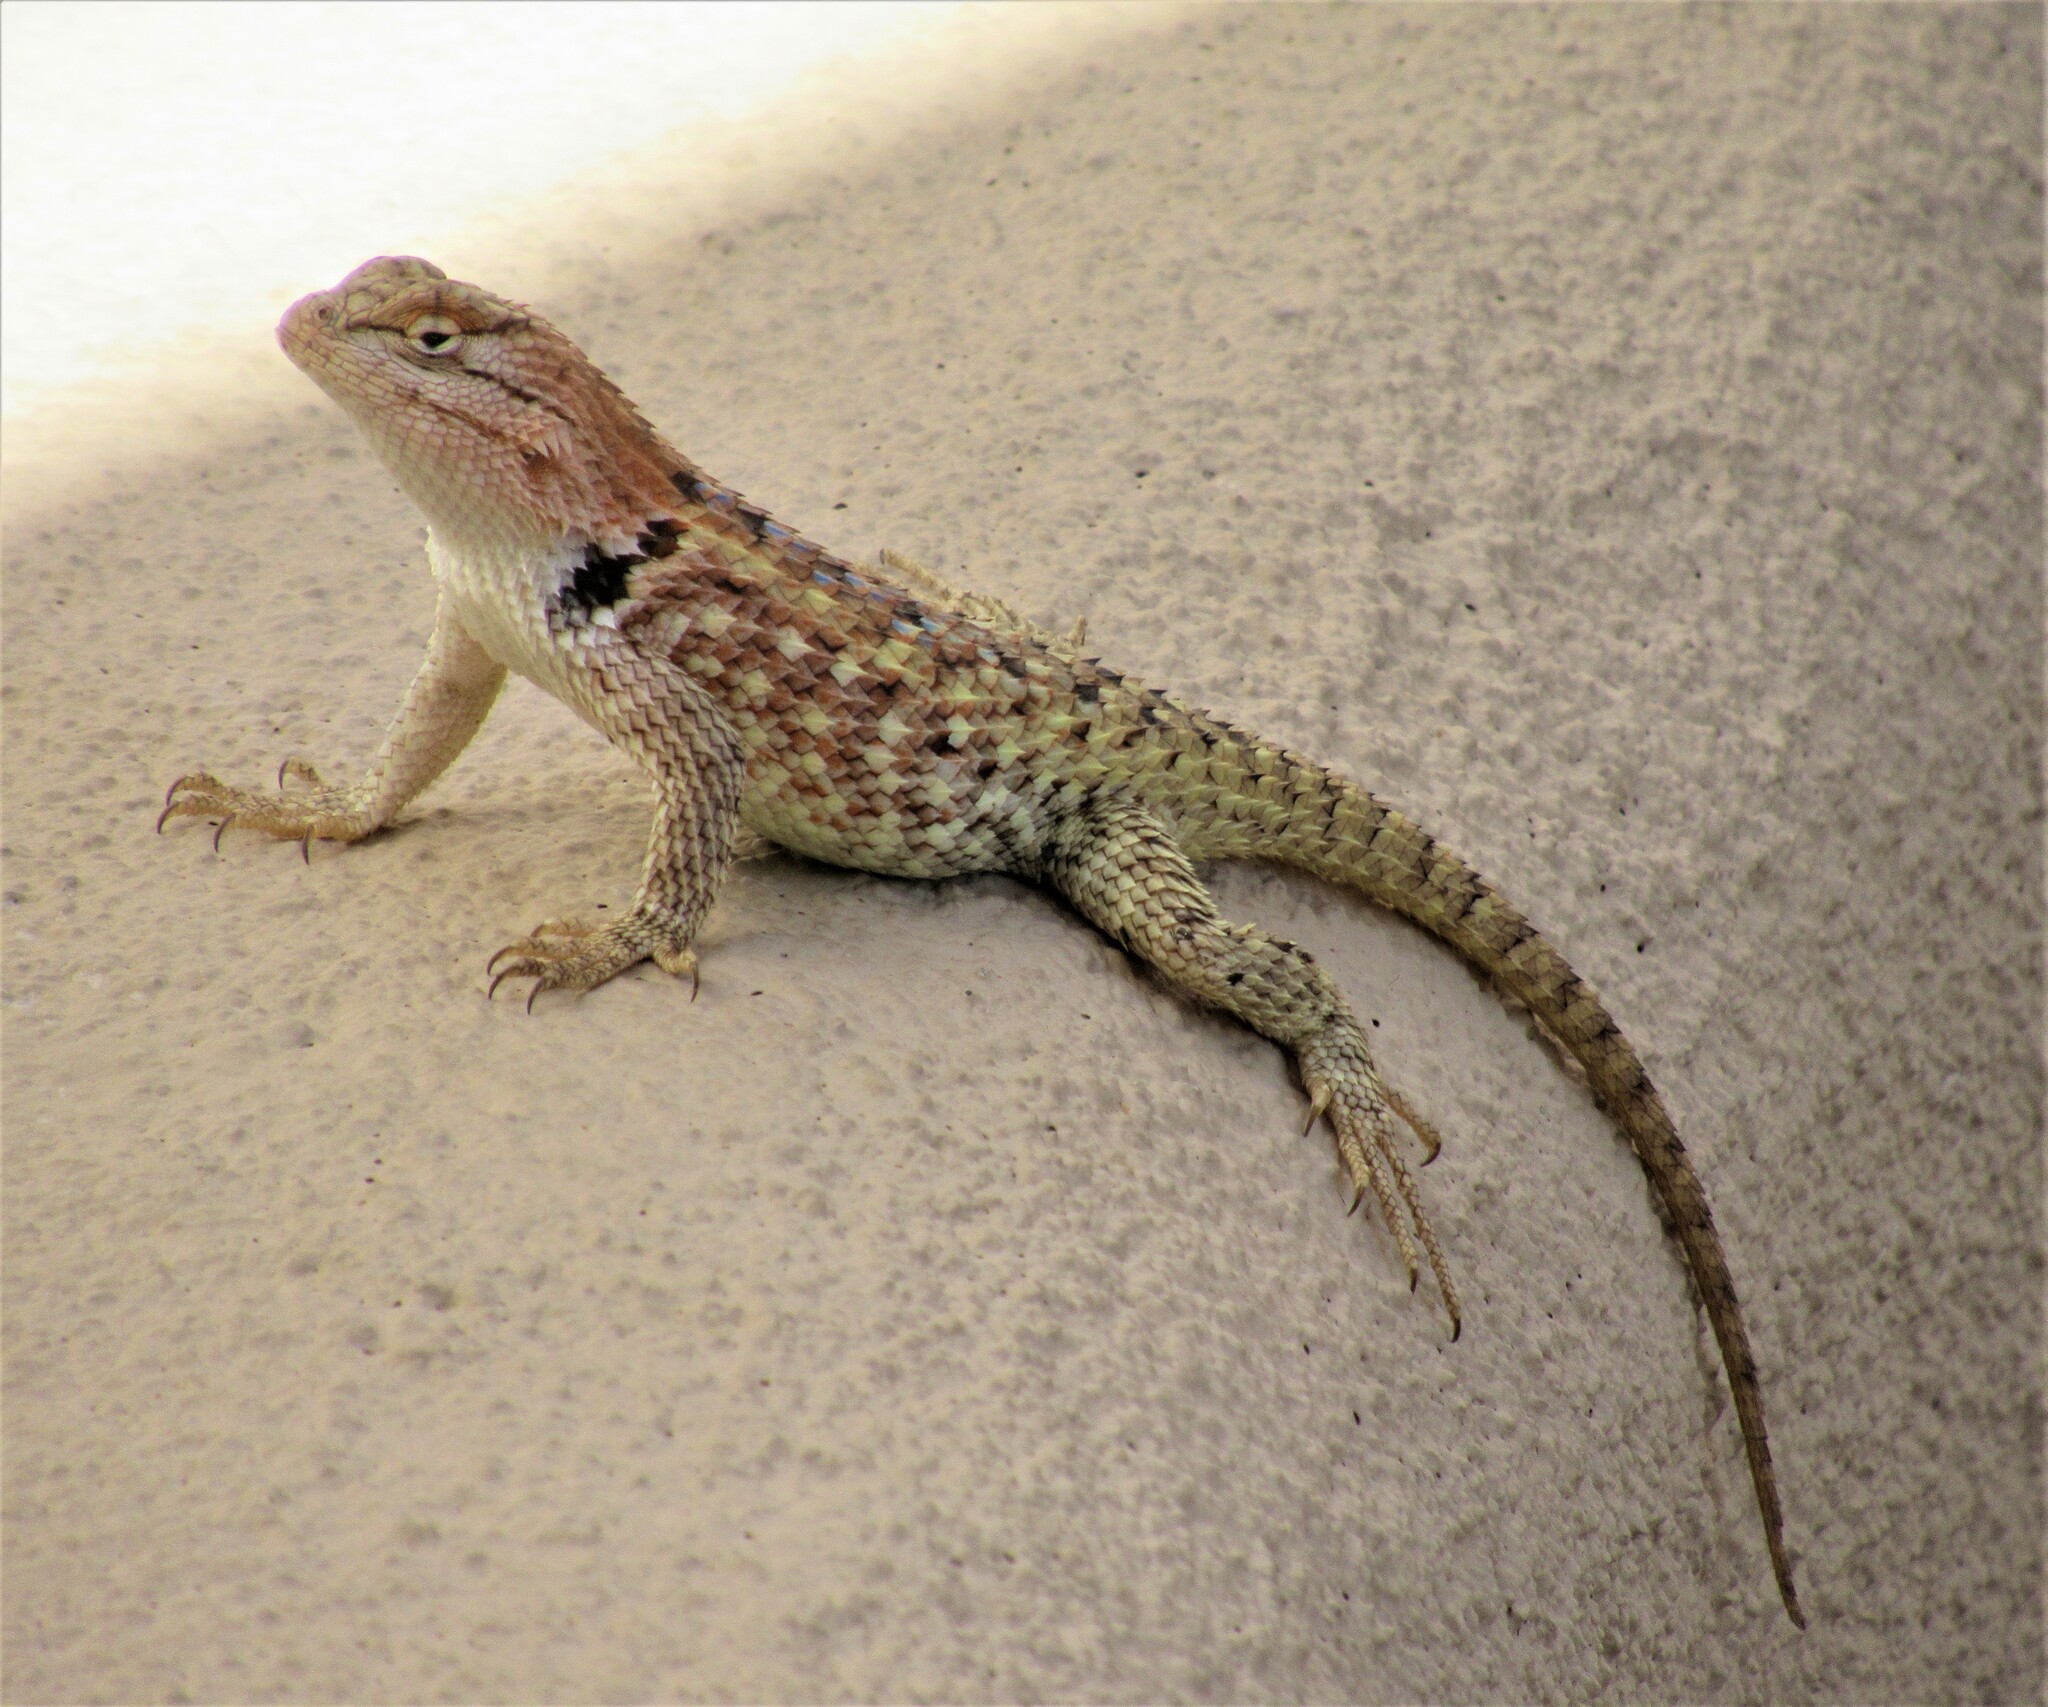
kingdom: Animalia
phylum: Chordata
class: Squamata
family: Phrynosomatidae
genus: Sceloporus
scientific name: Sceloporus magister
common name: Desert spiny lizard
